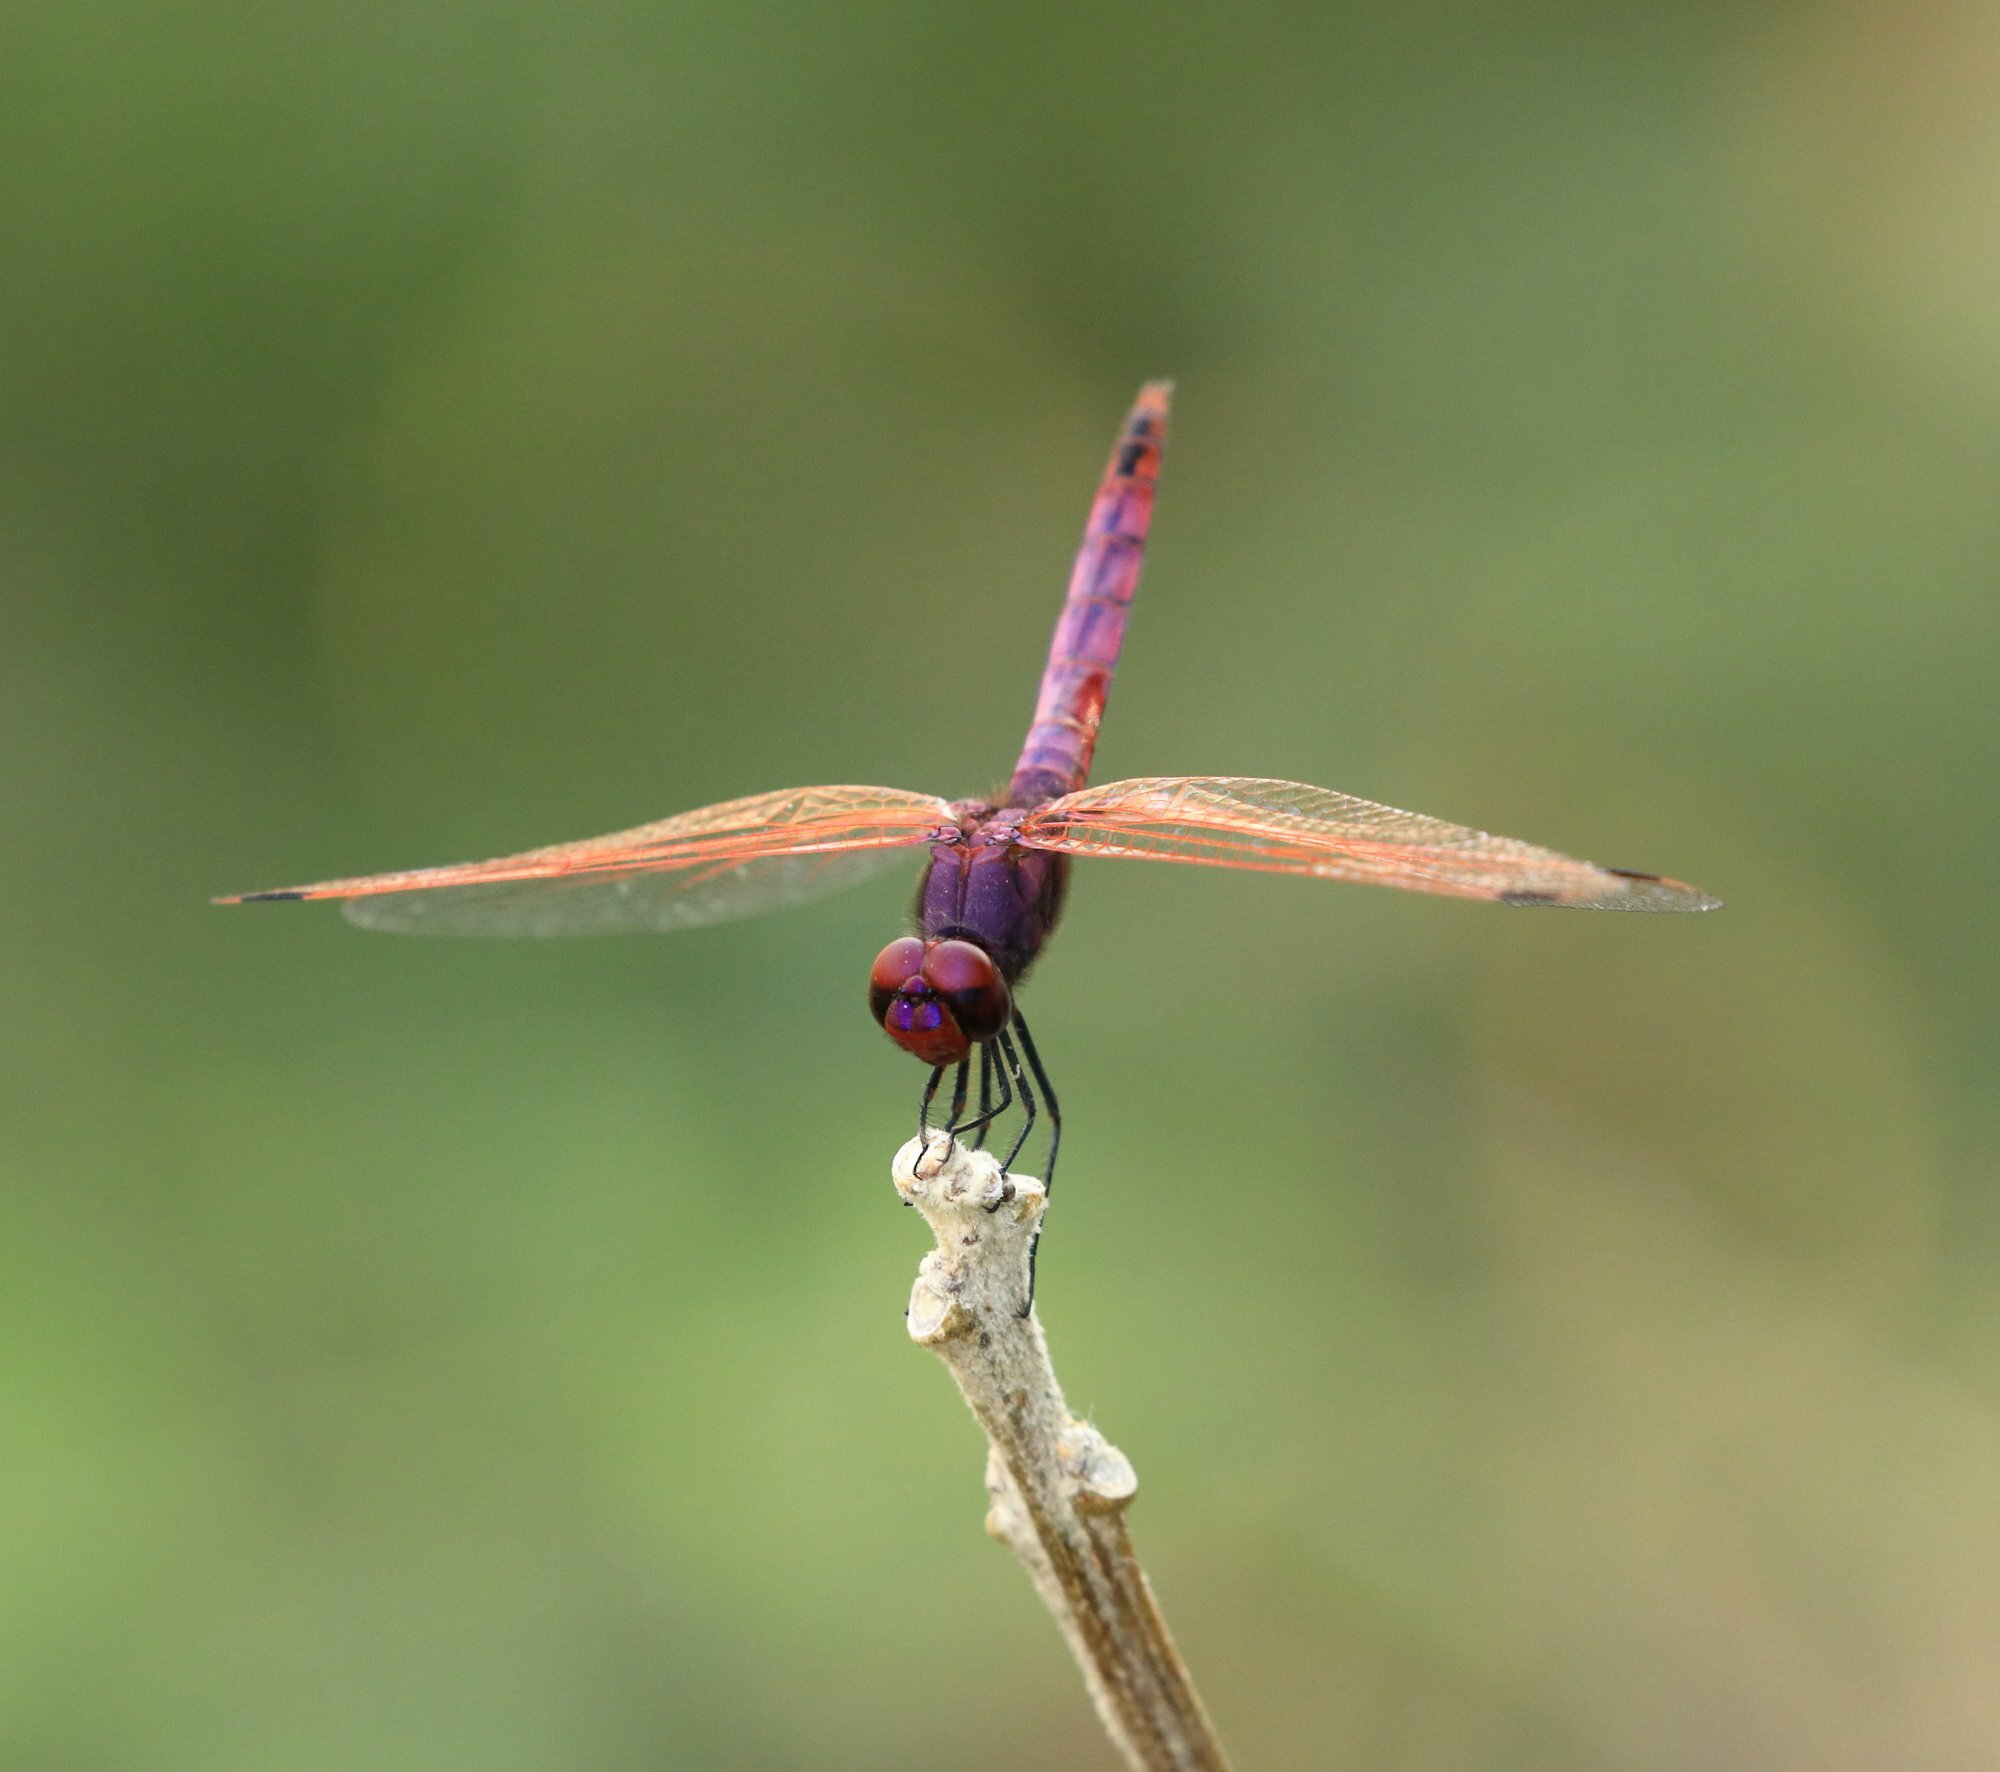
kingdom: Animalia
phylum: Arthropoda
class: Insecta
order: Odonata
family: Libellulidae
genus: Trithemis
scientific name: Trithemis annulata
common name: Violet dropwing
